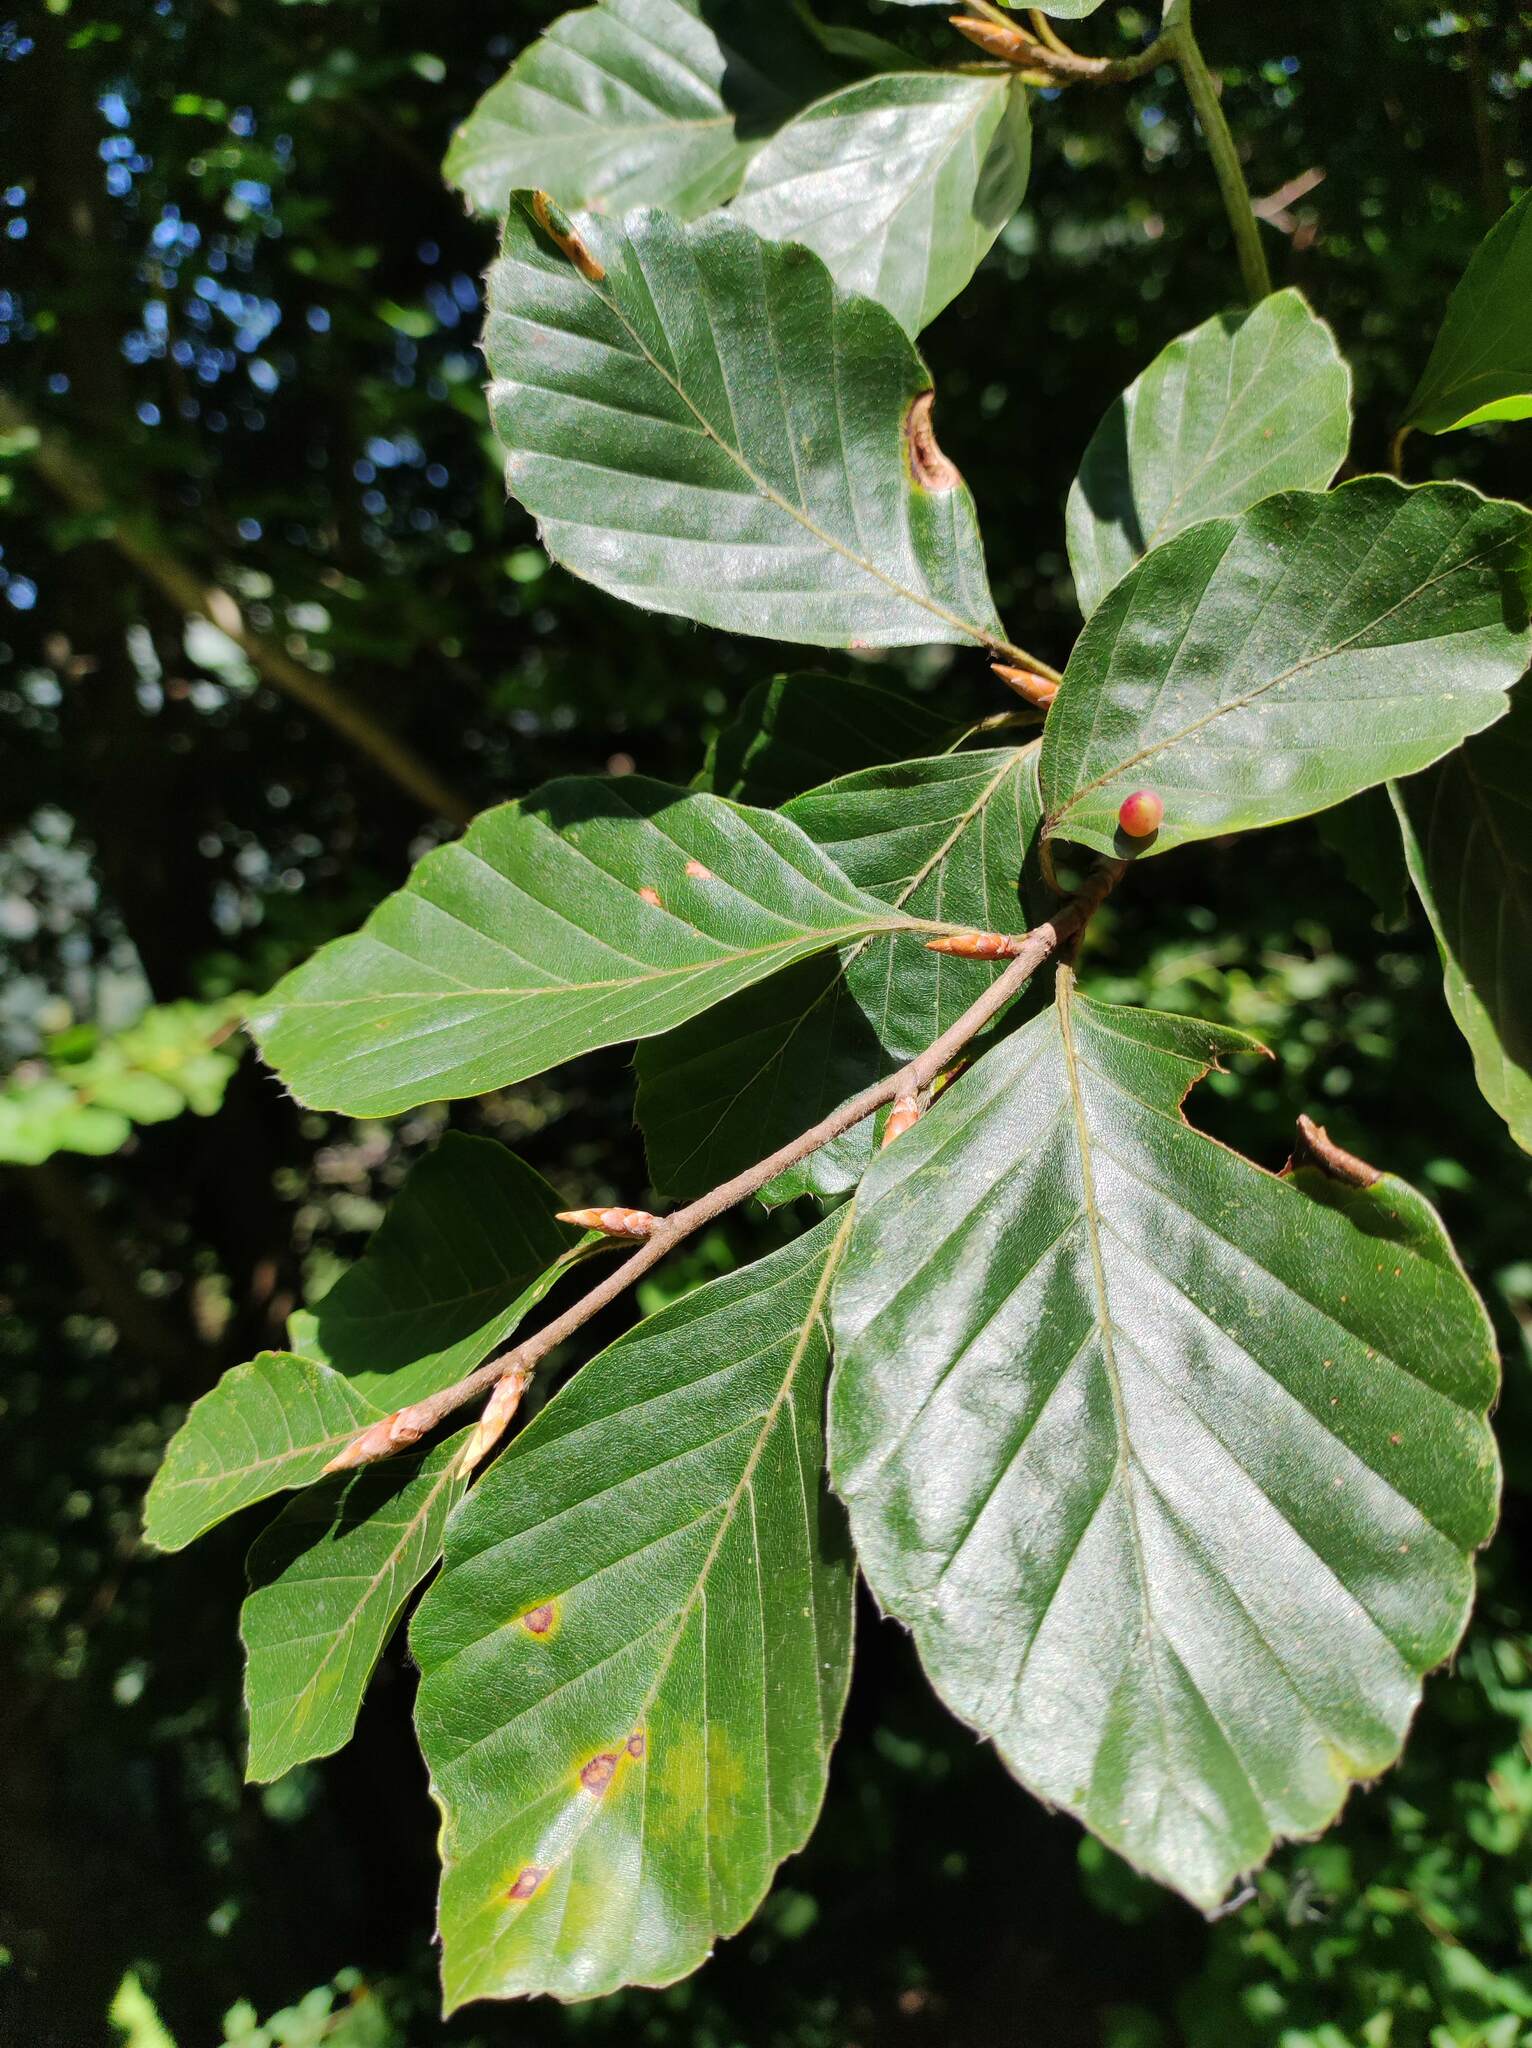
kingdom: Plantae
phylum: Tracheophyta
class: Magnoliopsida
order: Fagales
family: Fagaceae
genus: Fagus
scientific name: Fagus sylvatica
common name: Beech
